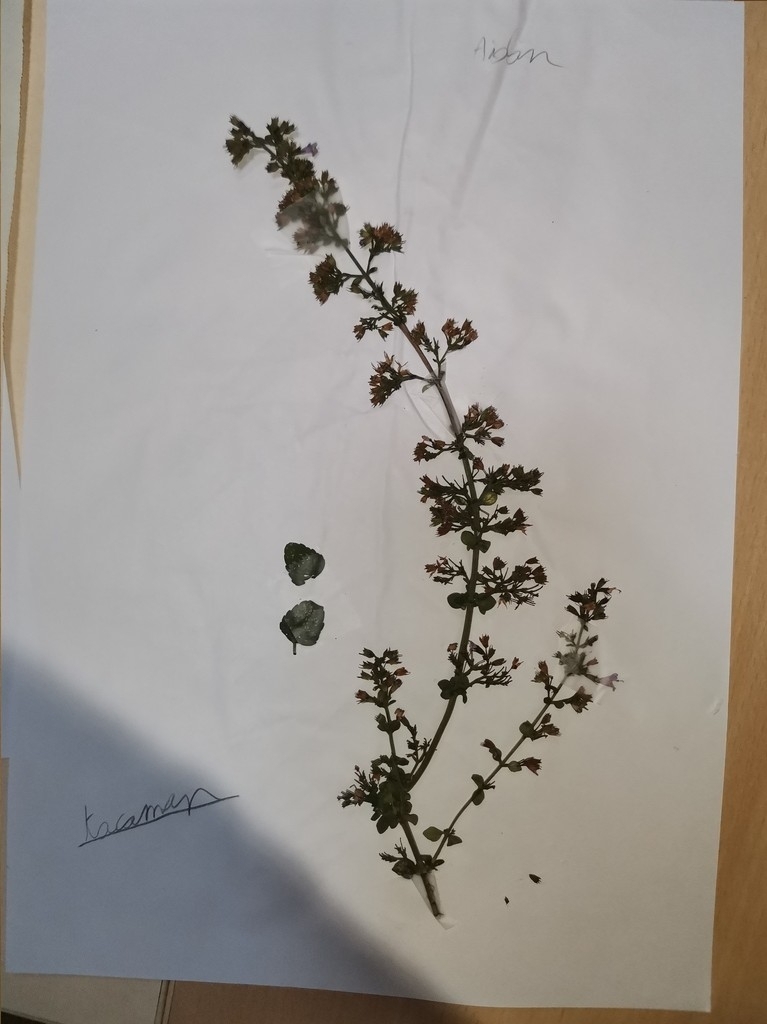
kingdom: Plantae
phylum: Tracheophyta
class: Magnoliopsida
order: Lamiales
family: Lamiaceae
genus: Clinopodium
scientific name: Clinopodium nepeta
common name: Lesser calamint
